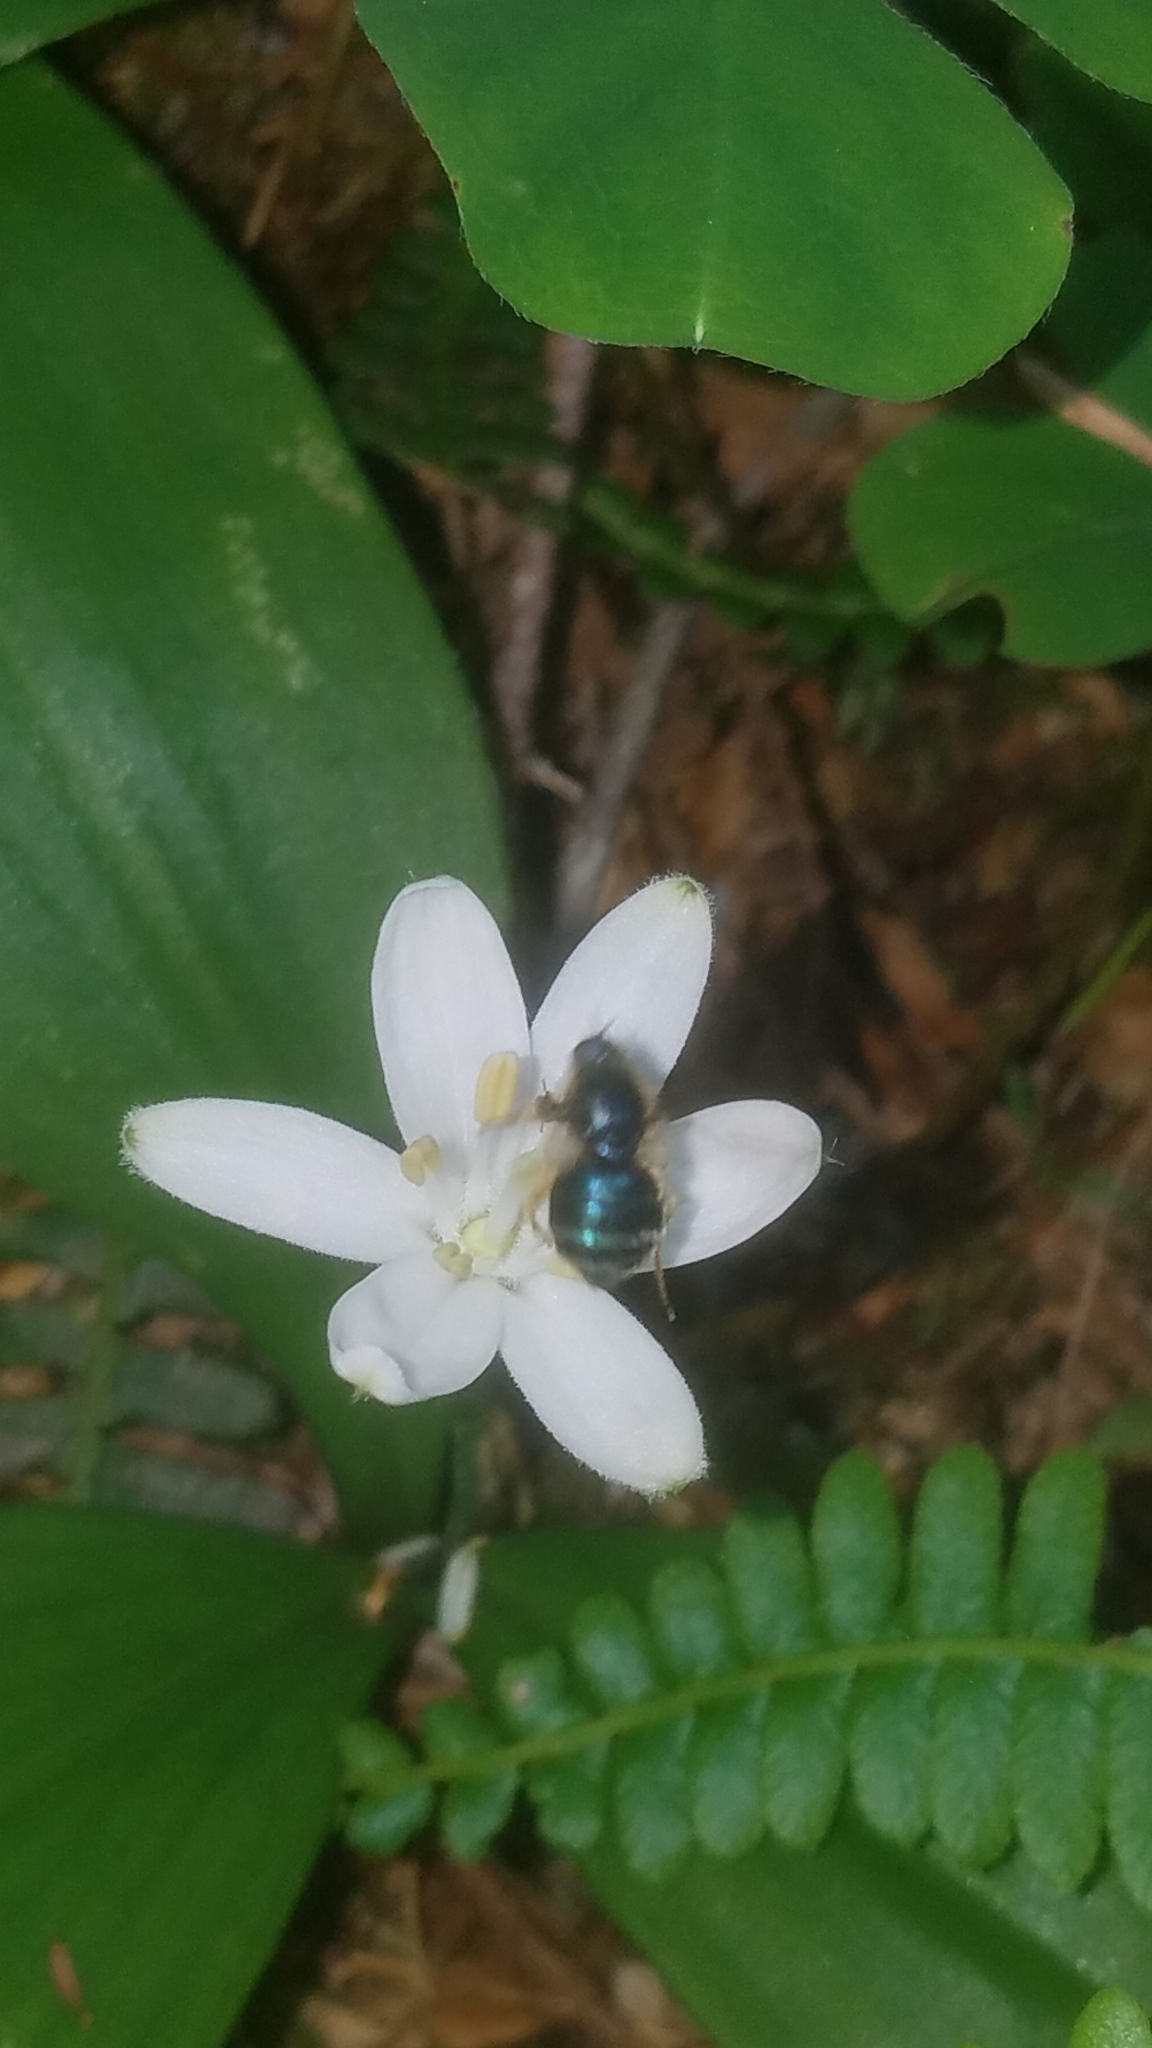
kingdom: Animalia
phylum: Arthropoda
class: Insecta
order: Diptera
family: Acroceridae
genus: Eulonchus
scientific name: Eulonchus tristis
